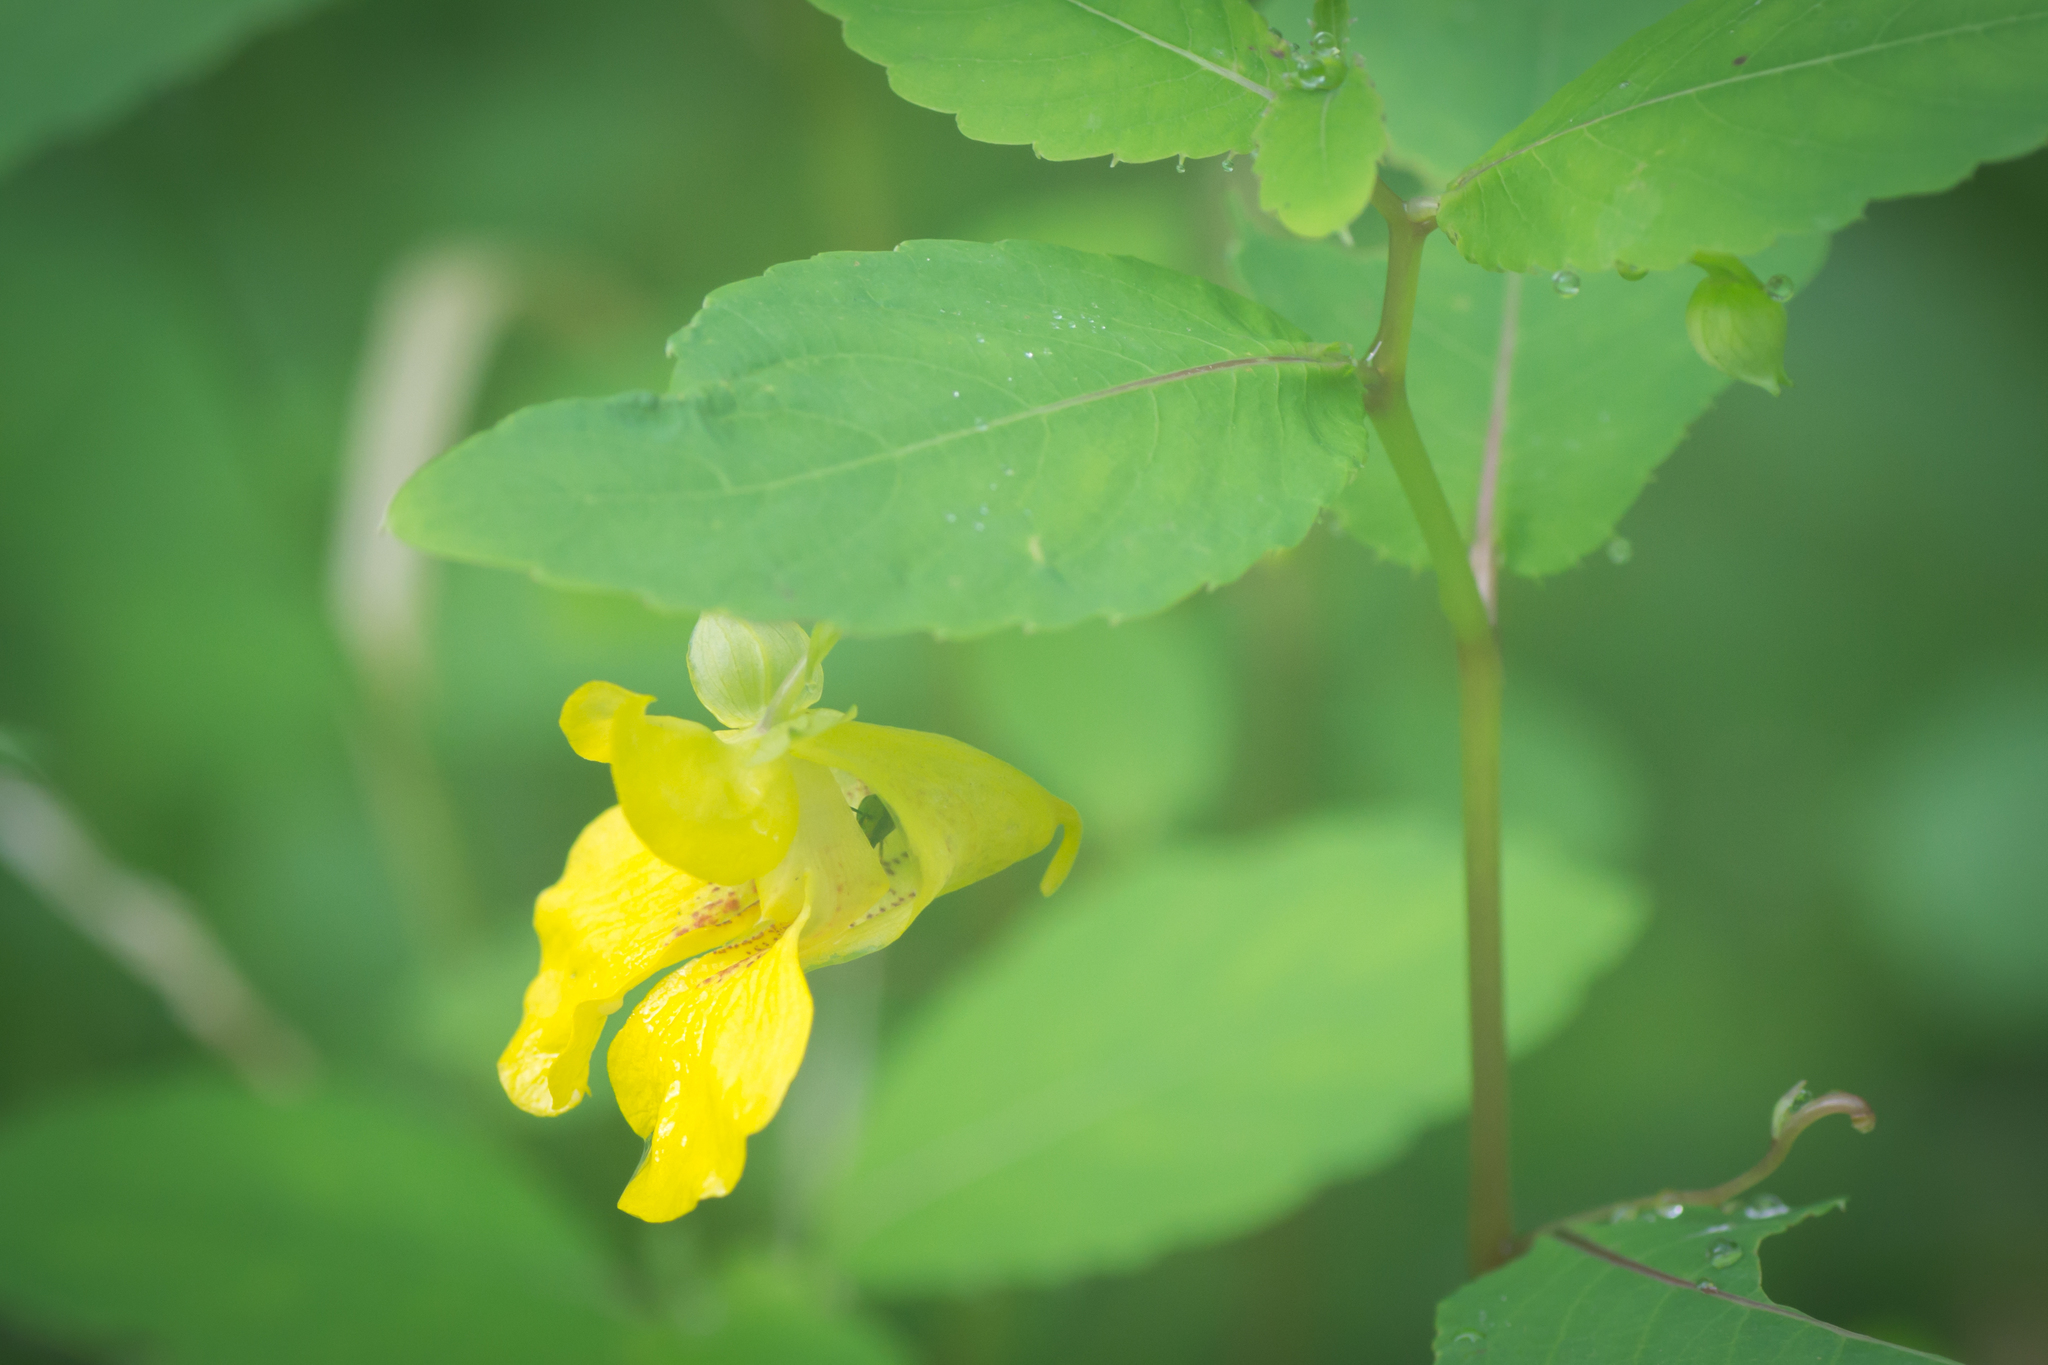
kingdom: Plantae
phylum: Tracheophyta
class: Magnoliopsida
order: Ericales
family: Balsaminaceae
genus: Impatiens
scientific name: Impatiens pallida
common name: Pale snapweed
